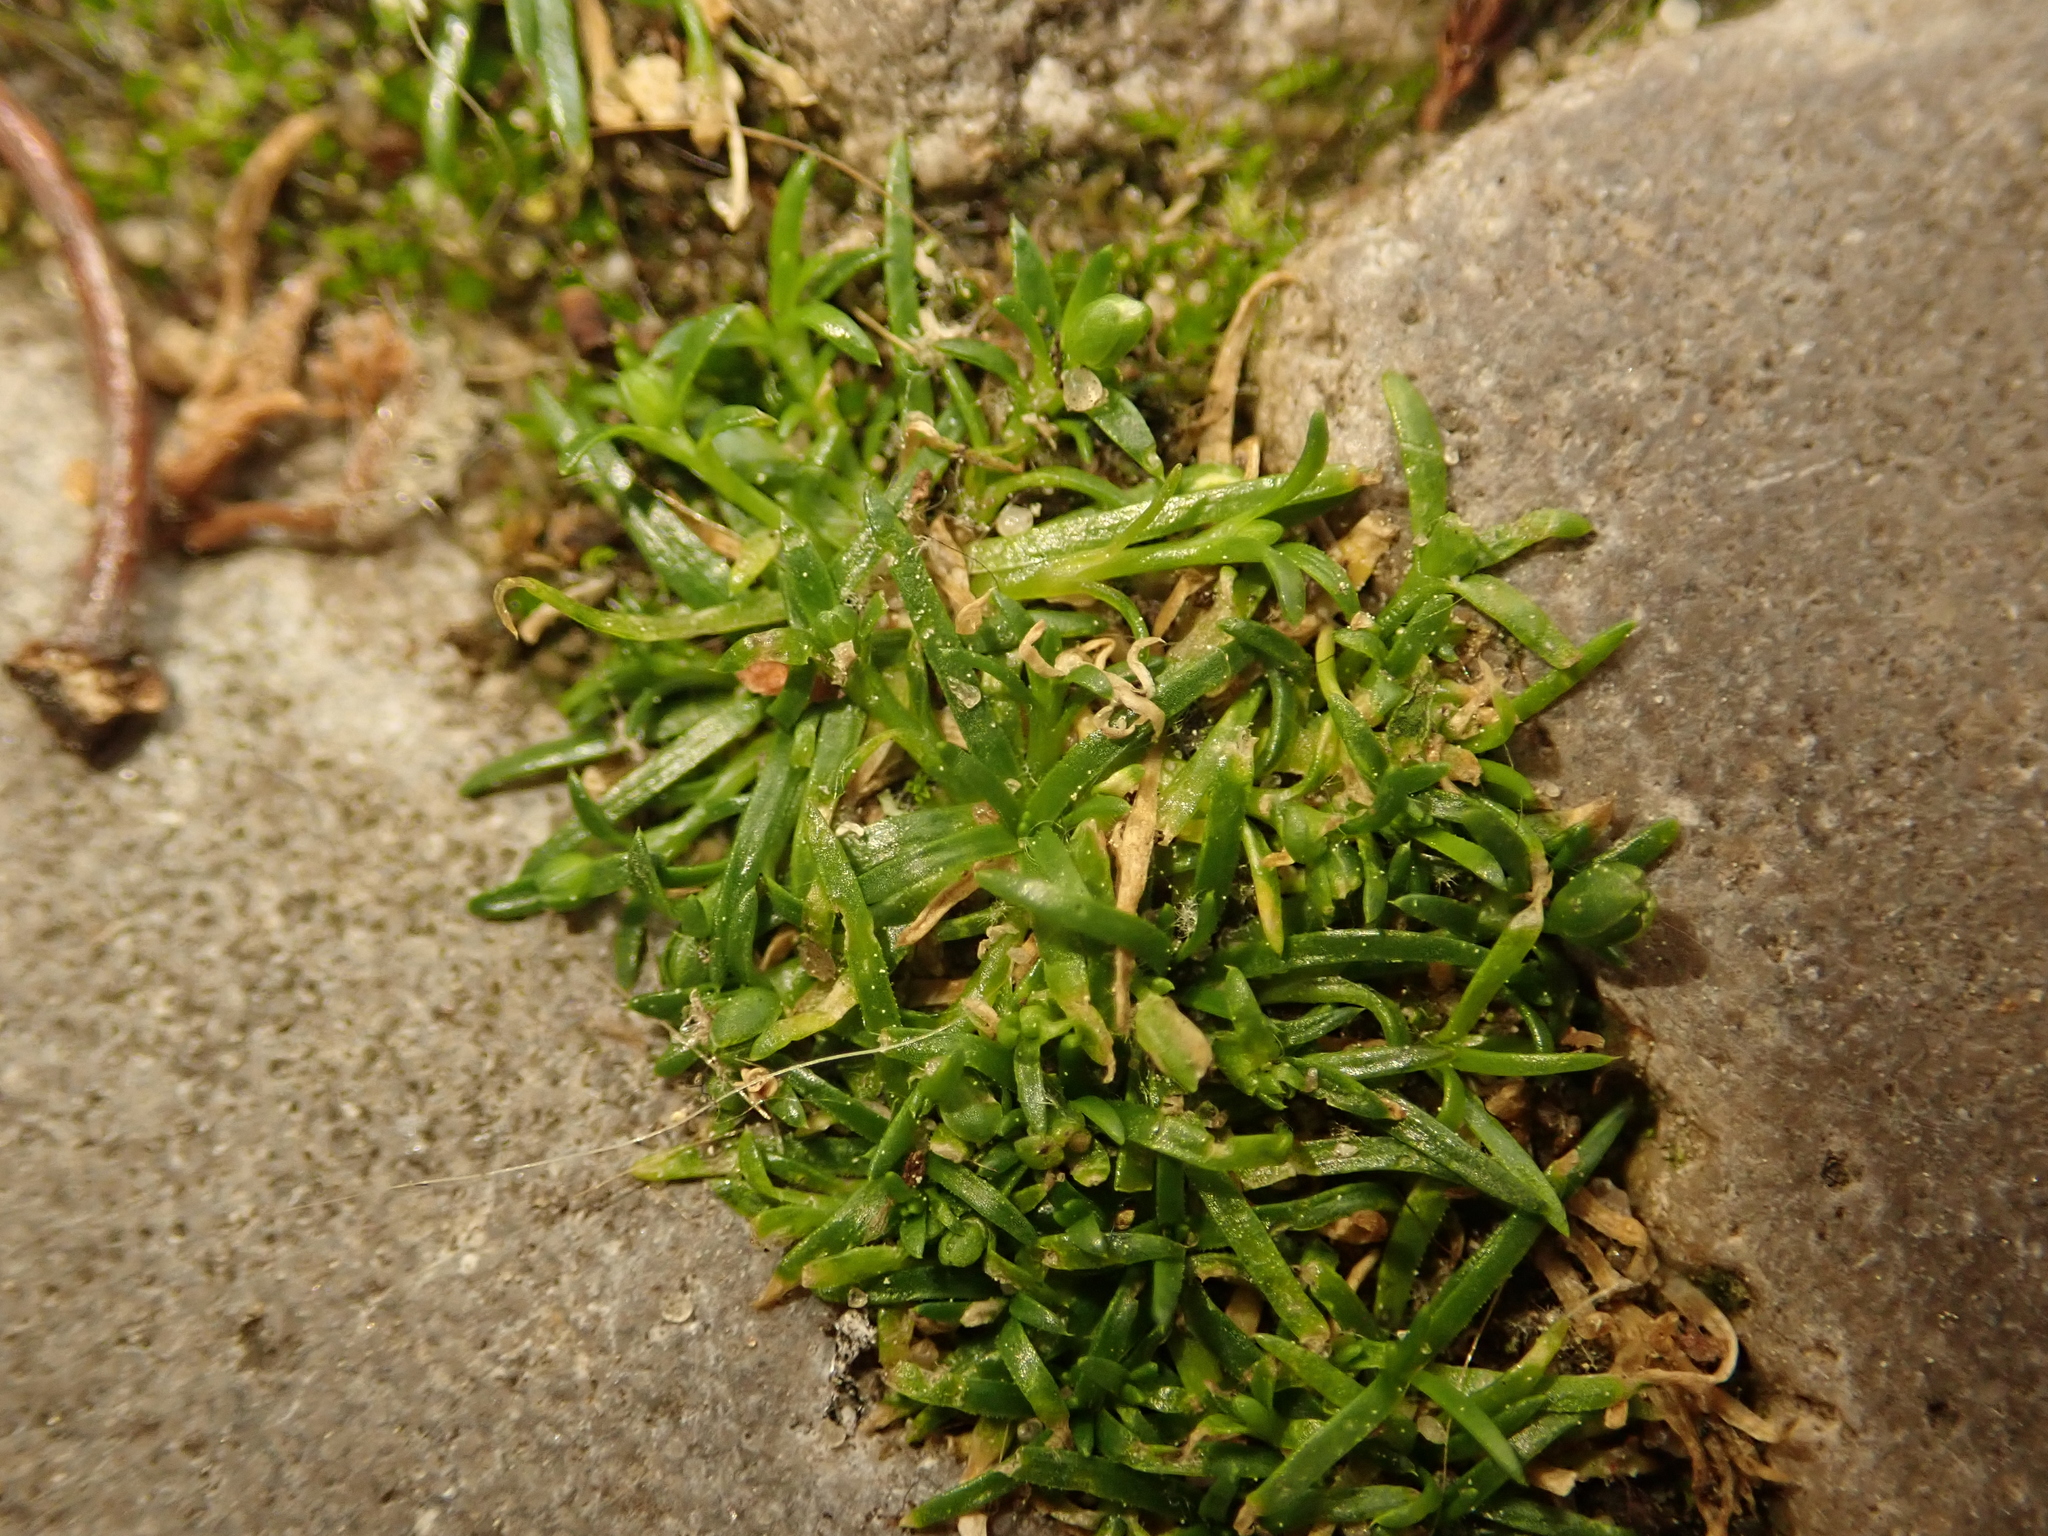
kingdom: Plantae
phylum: Tracheophyta
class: Magnoliopsida
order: Caryophyllales
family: Caryophyllaceae
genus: Sagina
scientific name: Sagina procumbens
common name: Procumbent pearlwort
